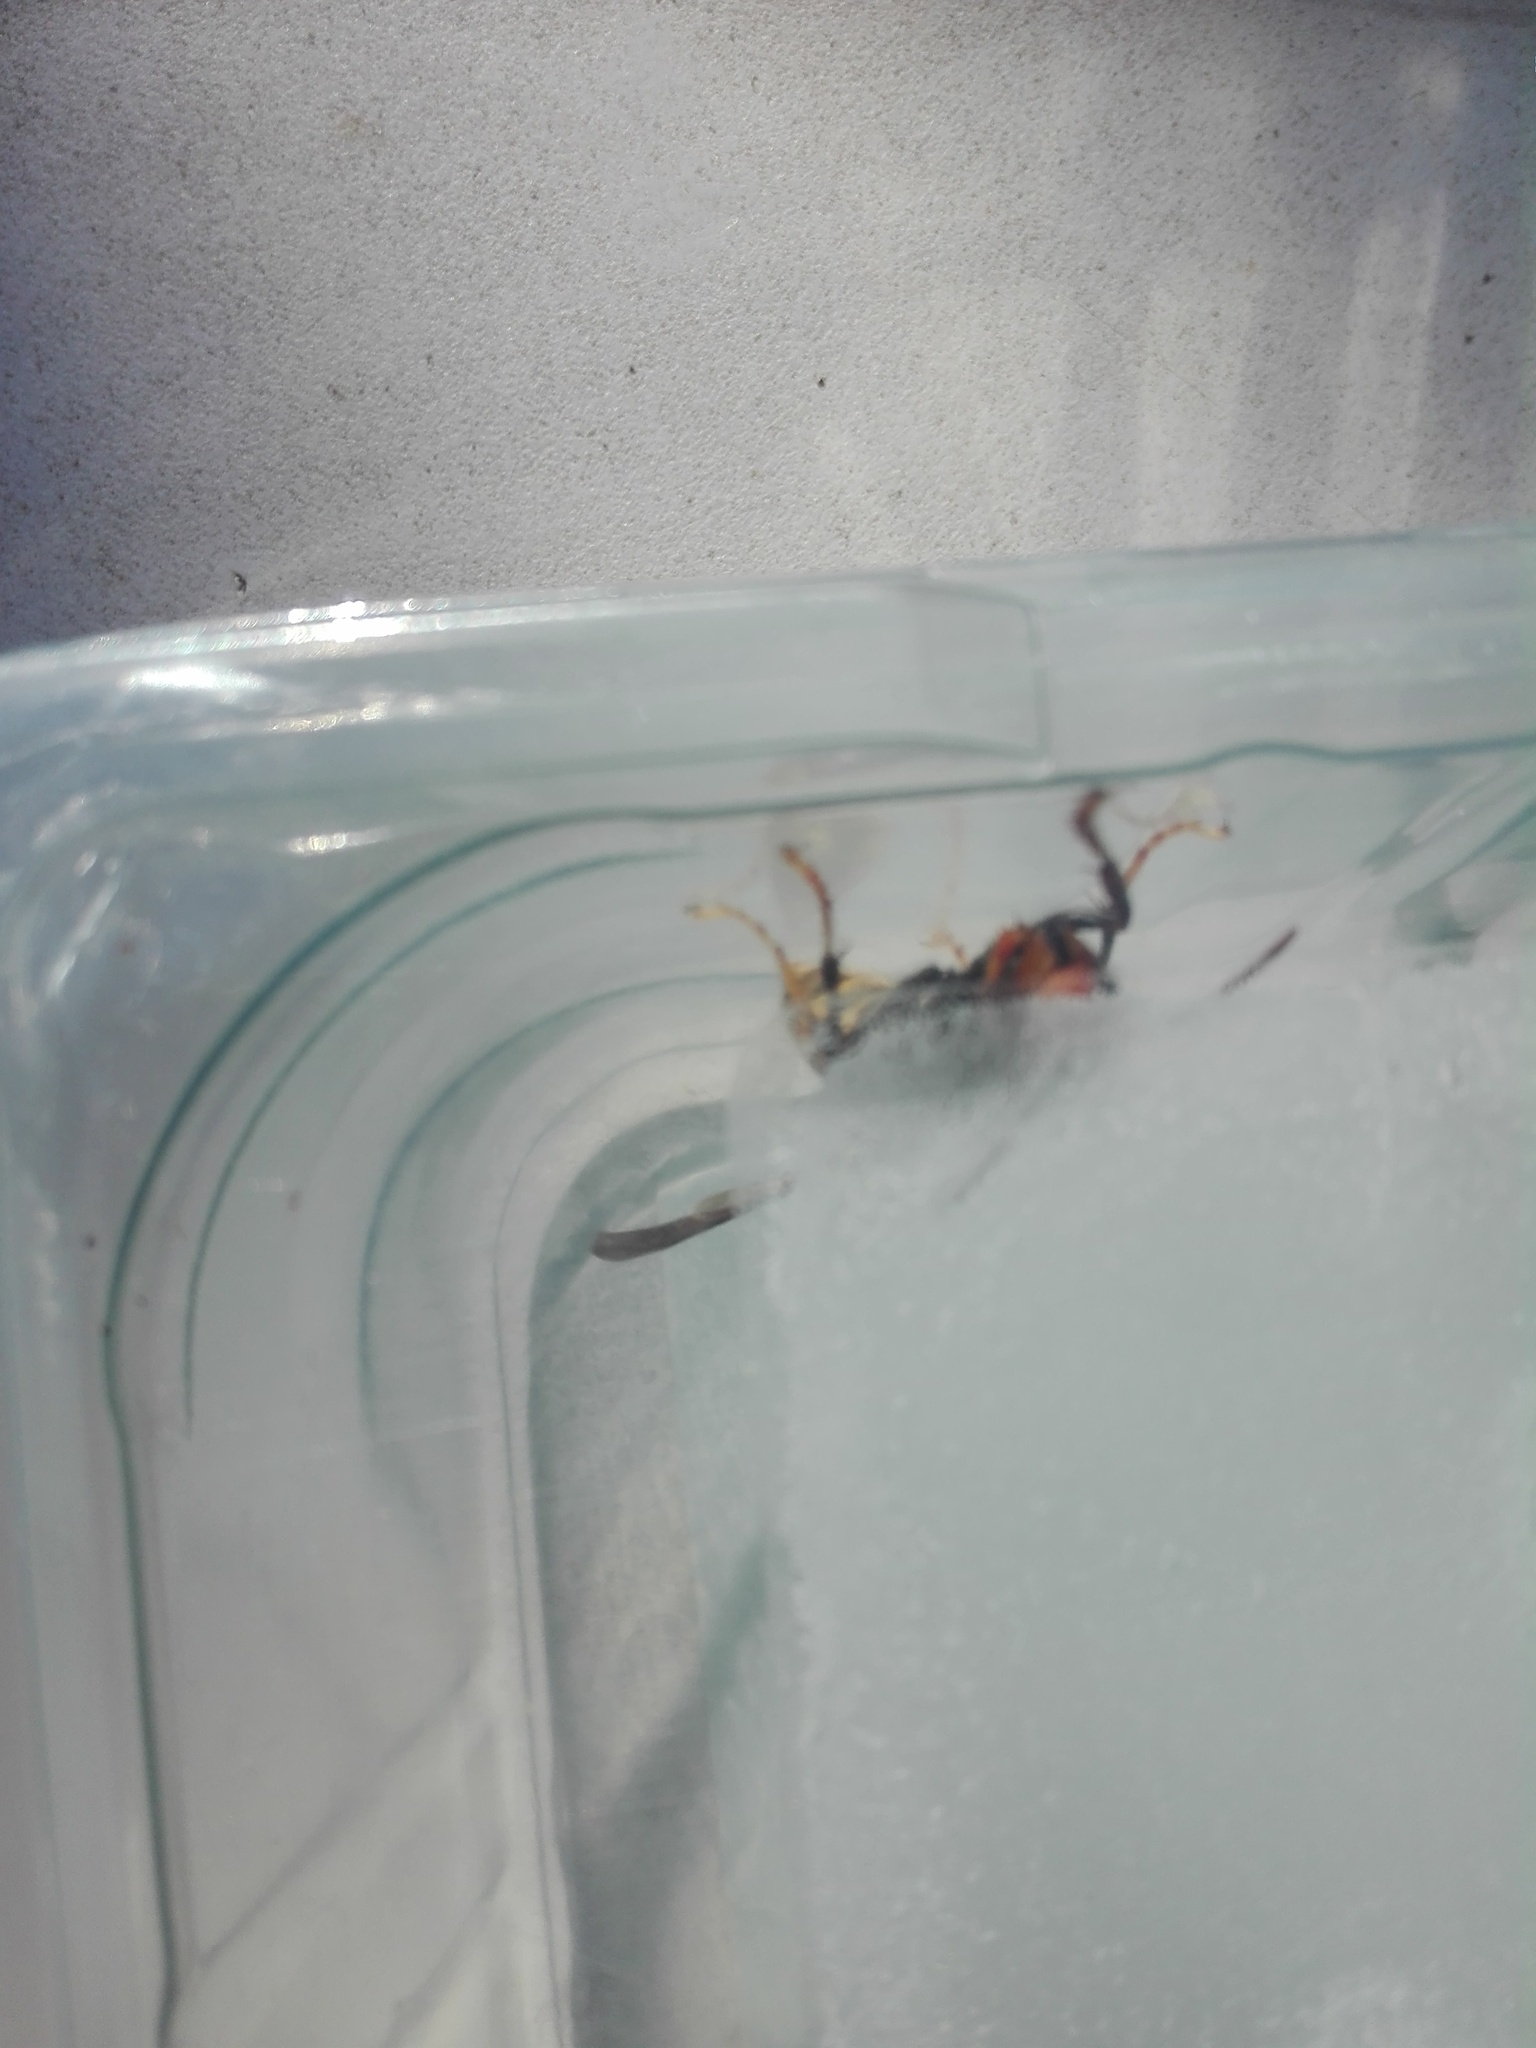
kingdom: Animalia
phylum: Arthropoda
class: Insecta
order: Hymenoptera
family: Vespidae
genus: Vespa
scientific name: Vespa velutina
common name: Asian hornet
